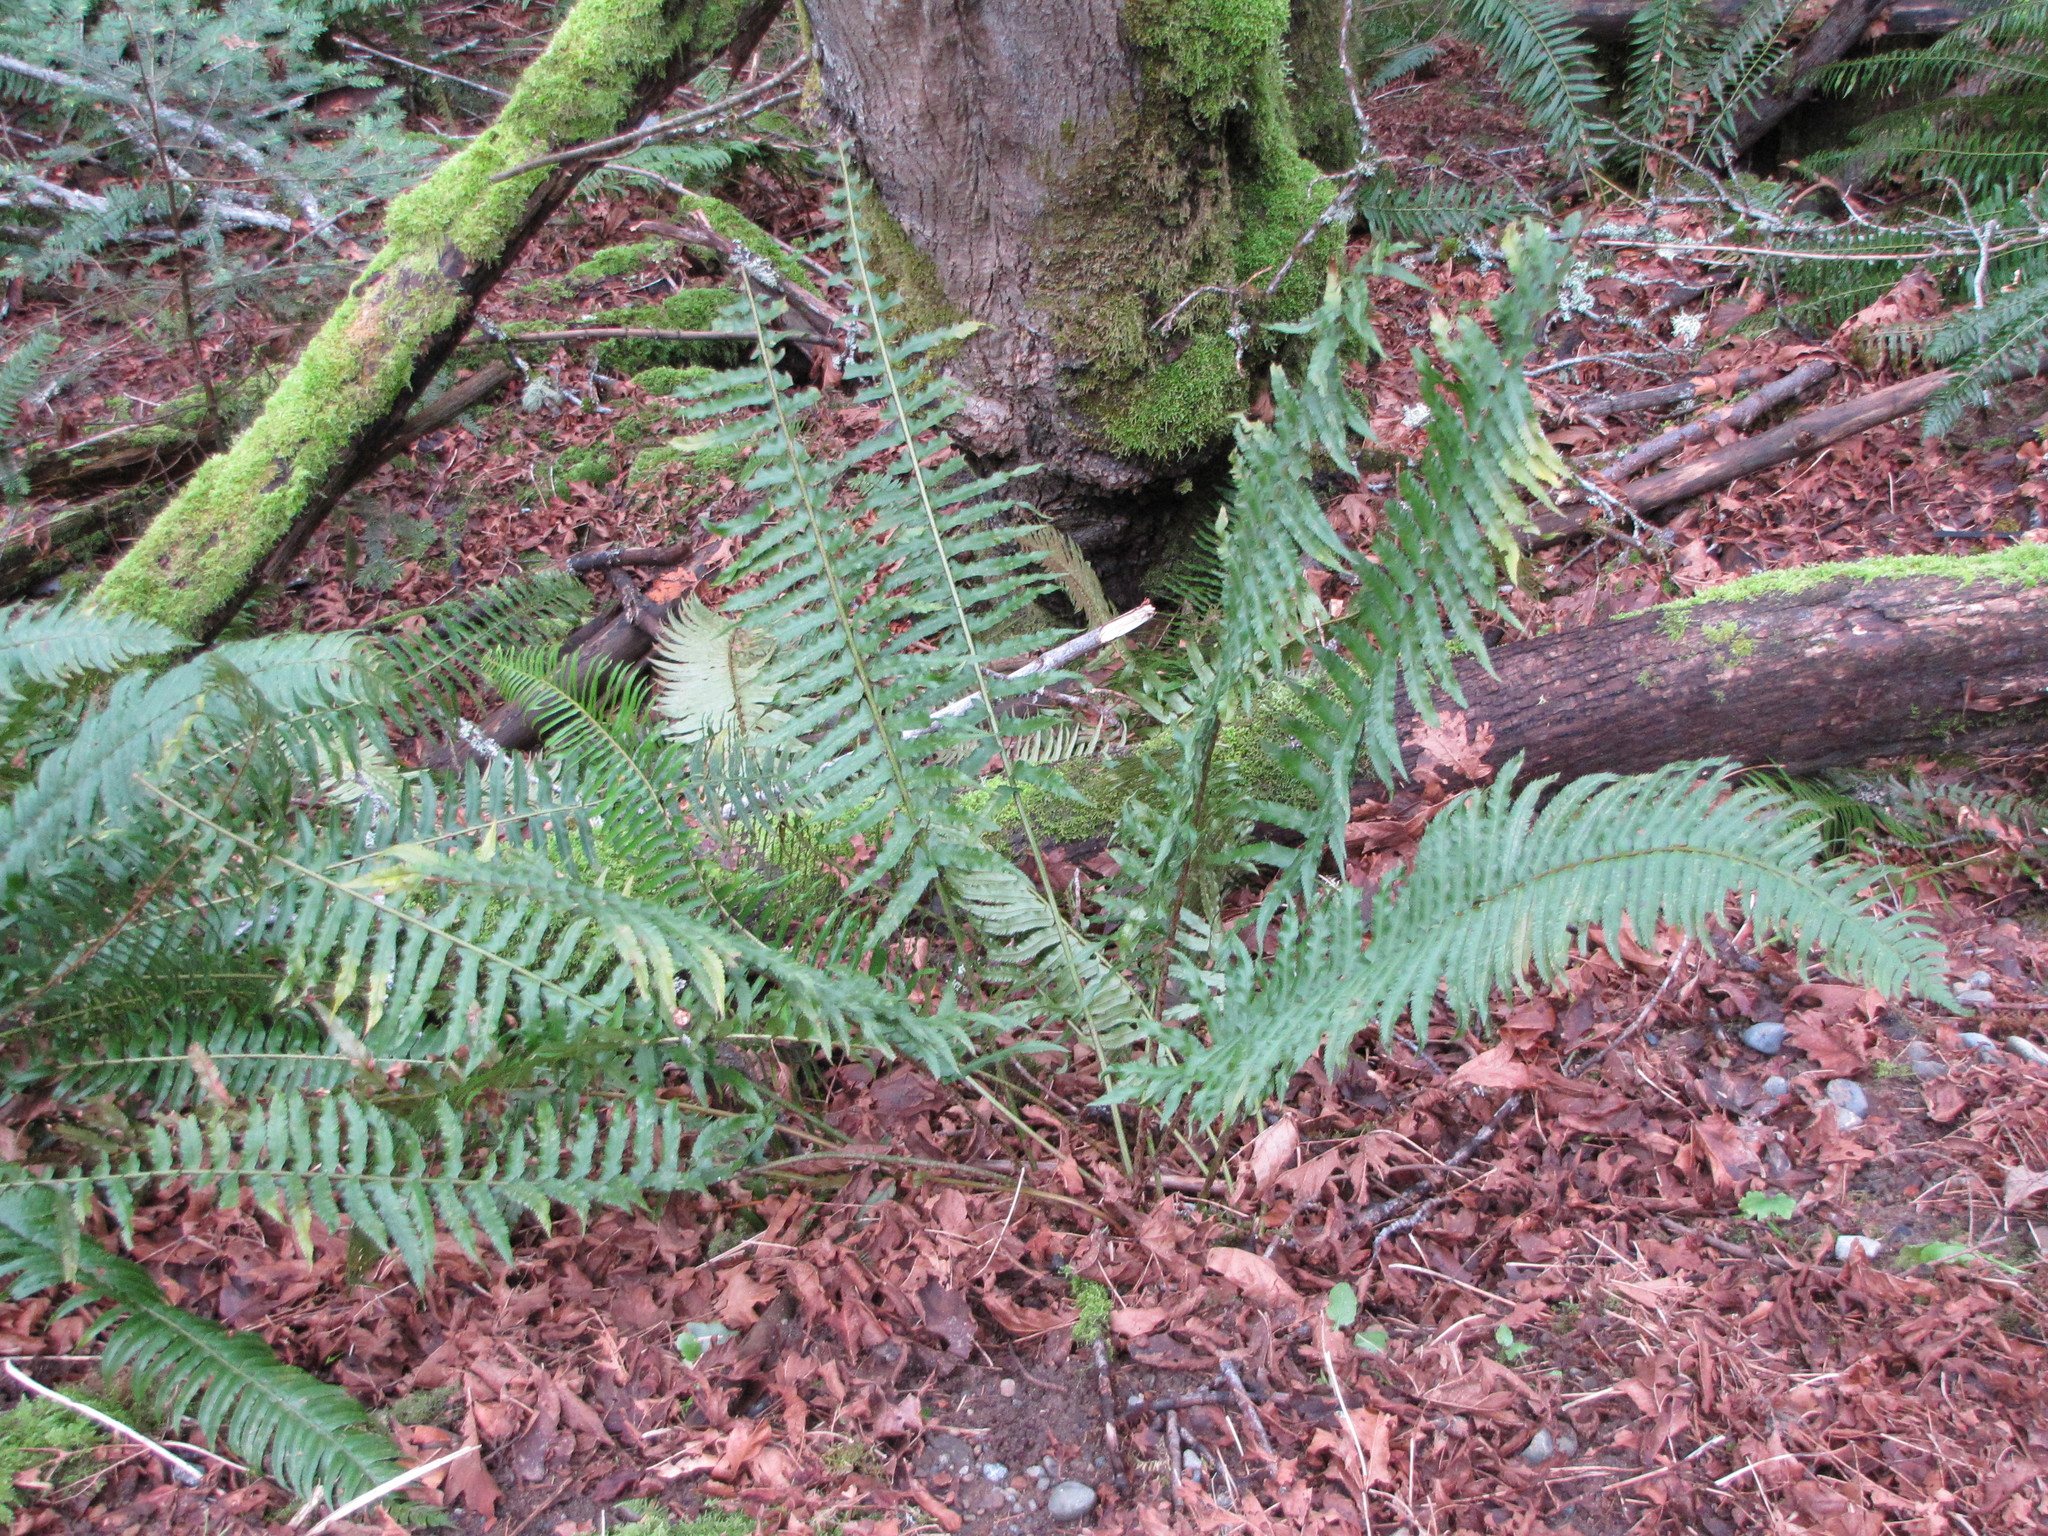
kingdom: Plantae
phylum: Tracheophyta
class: Polypodiopsida
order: Polypodiales
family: Dryopteridaceae
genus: Polystichum
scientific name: Polystichum munitum
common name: Western sword-fern
